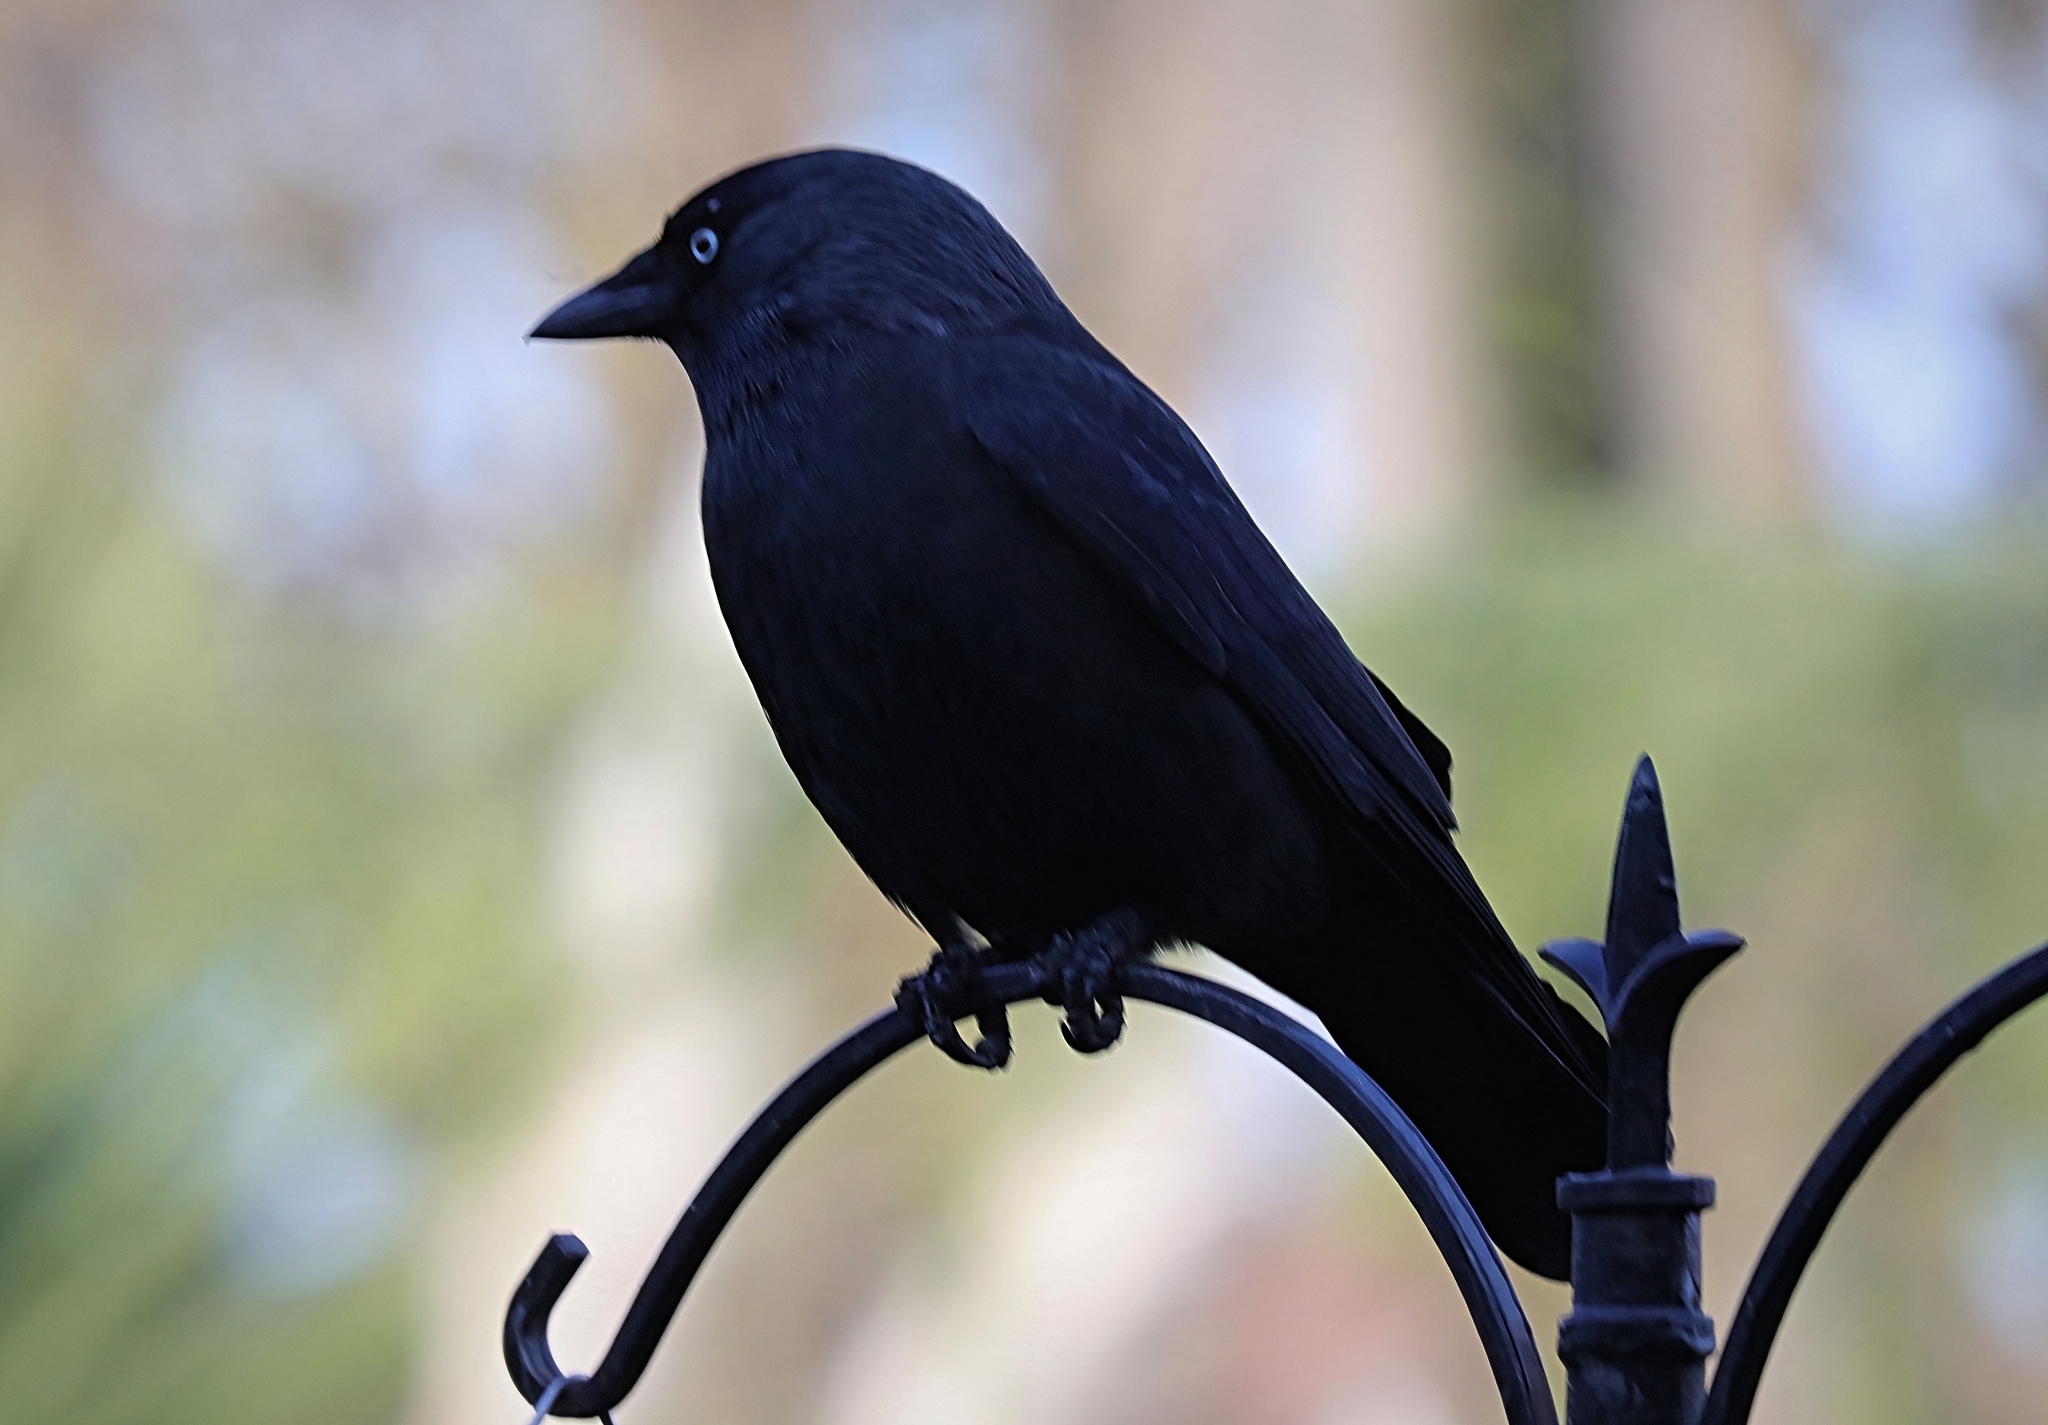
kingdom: Animalia
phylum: Chordata
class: Aves
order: Passeriformes
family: Corvidae
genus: Coloeus
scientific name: Coloeus monedula
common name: Western jackdaw
